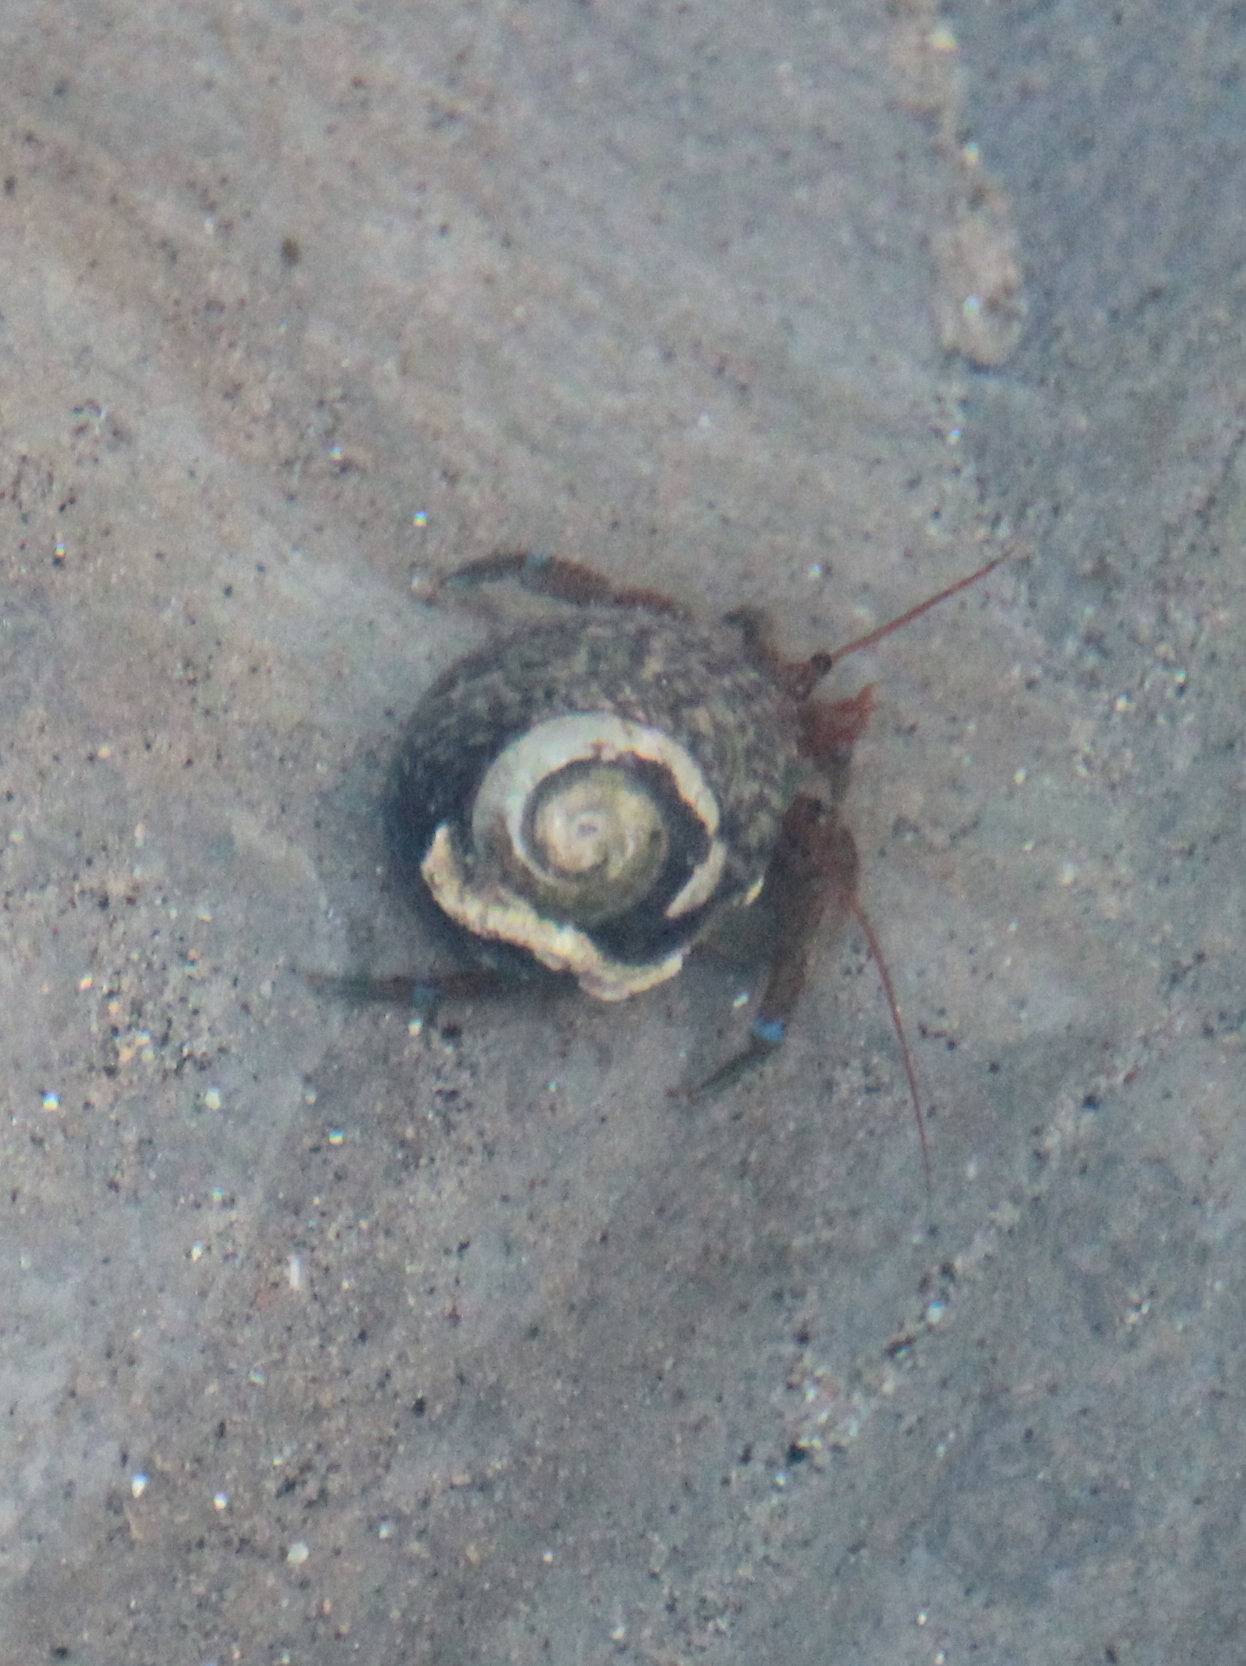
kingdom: Animalia
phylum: Arthropoda
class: Malacostraca
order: Decapoda
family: Paguridae
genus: Pagurus
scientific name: Pagurus samuelis
